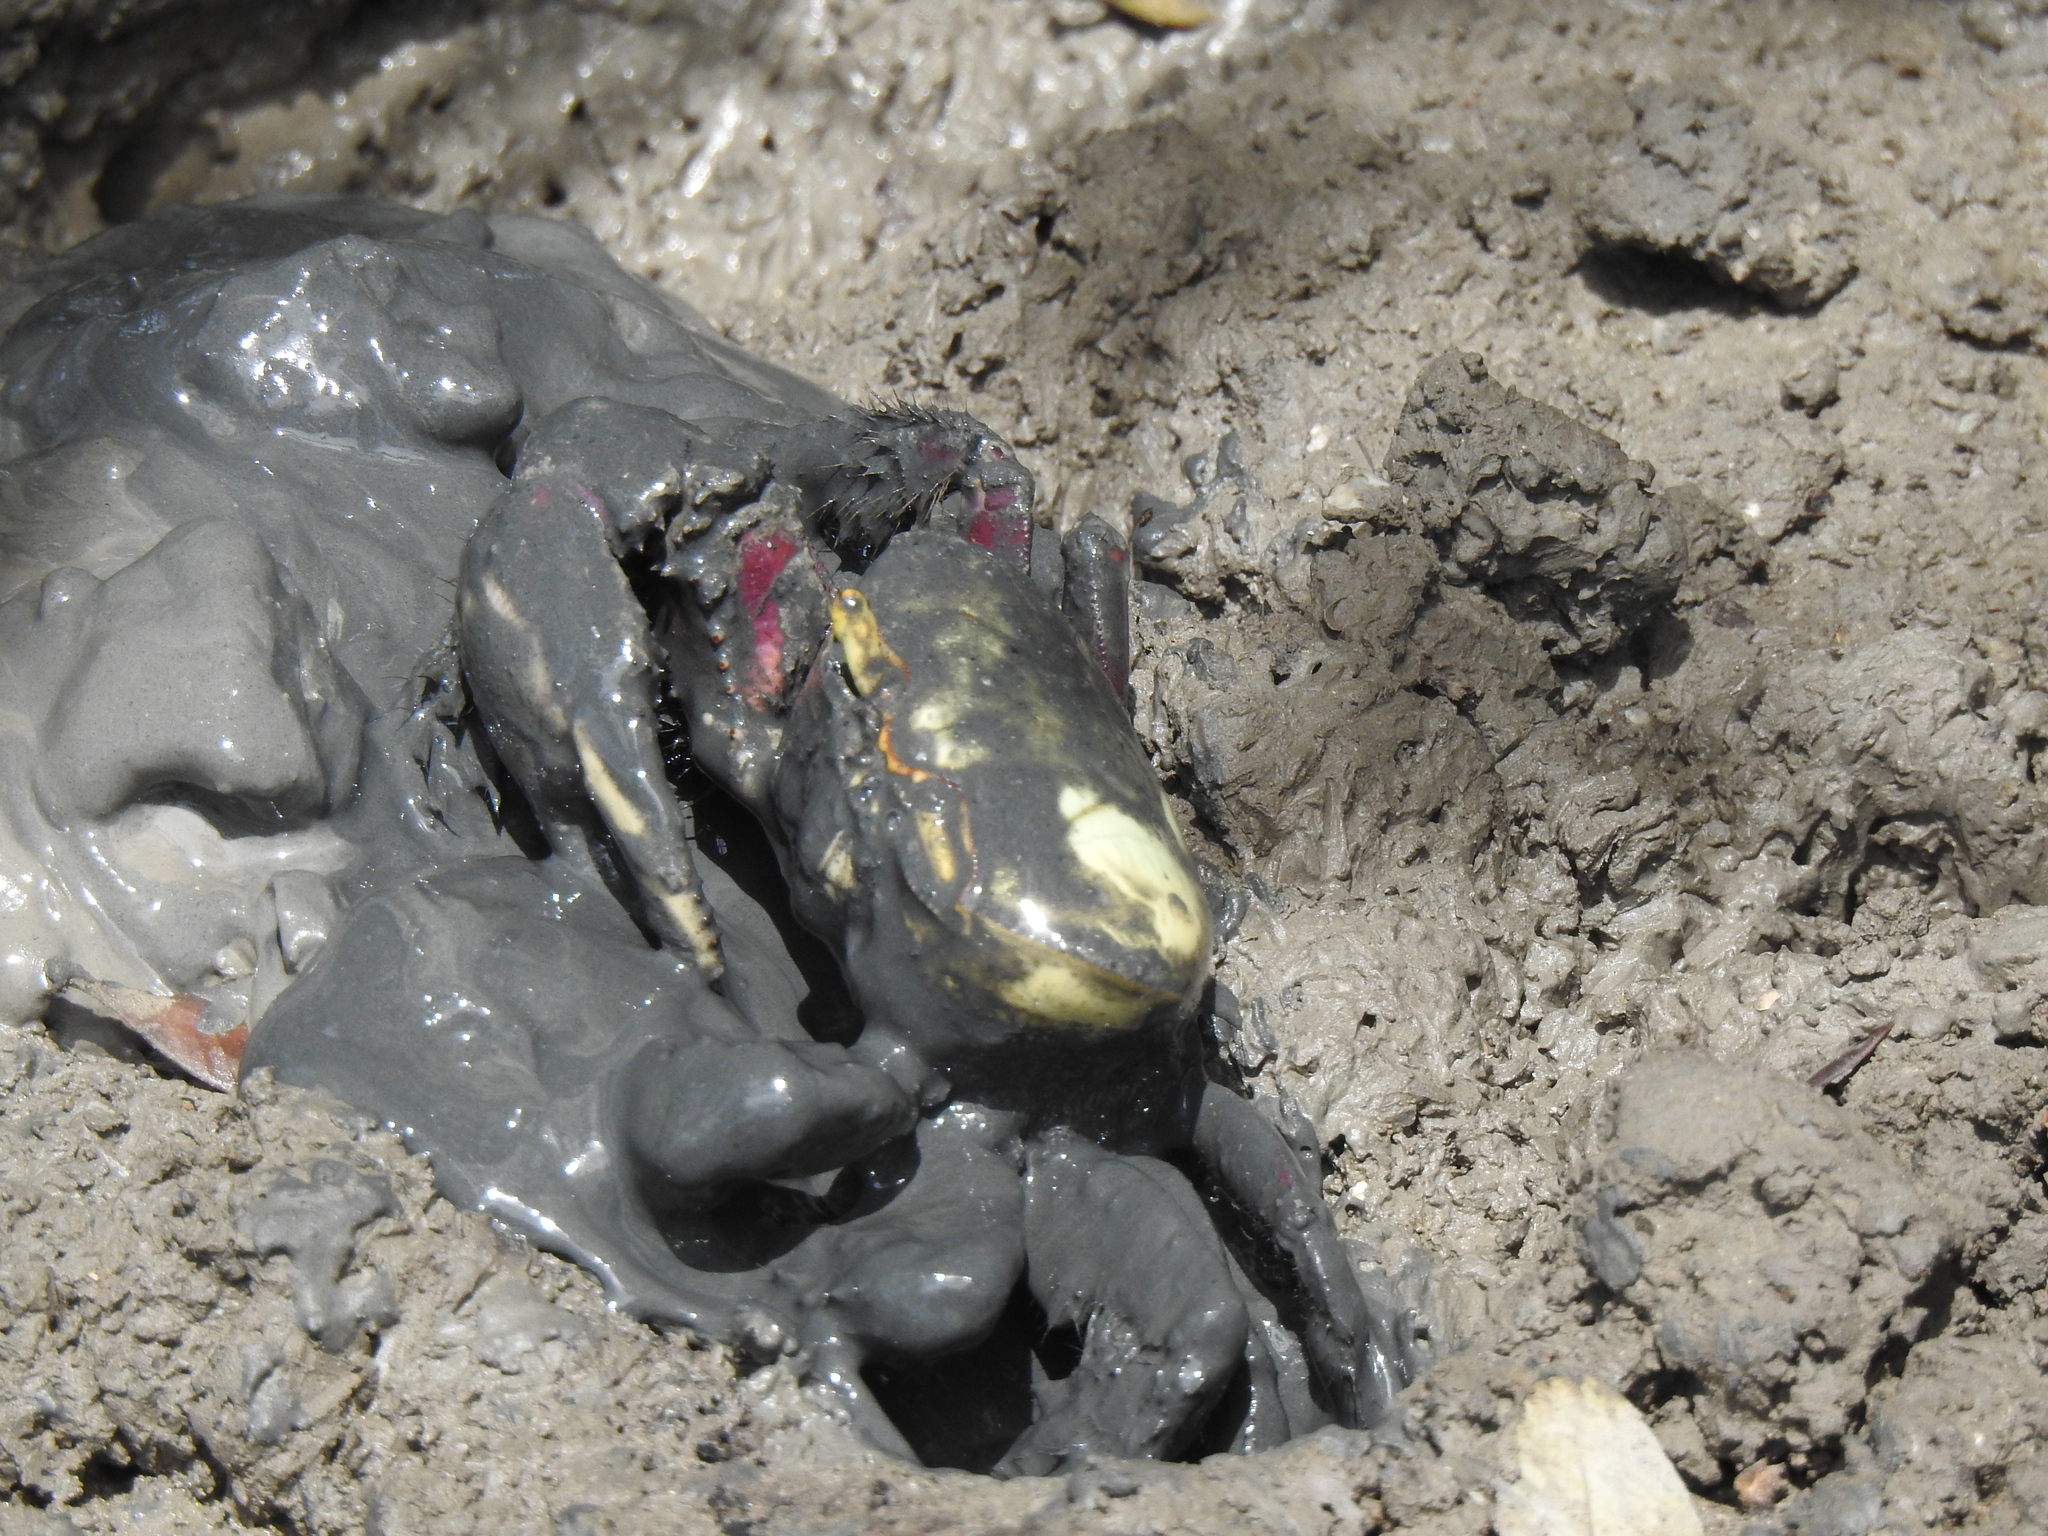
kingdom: Animalia
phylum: Arthropoda
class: Malacostraca
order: Decapoda
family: Ocypodidae
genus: Ucides
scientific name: Ucides cordatus
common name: Swamp ghost crab
